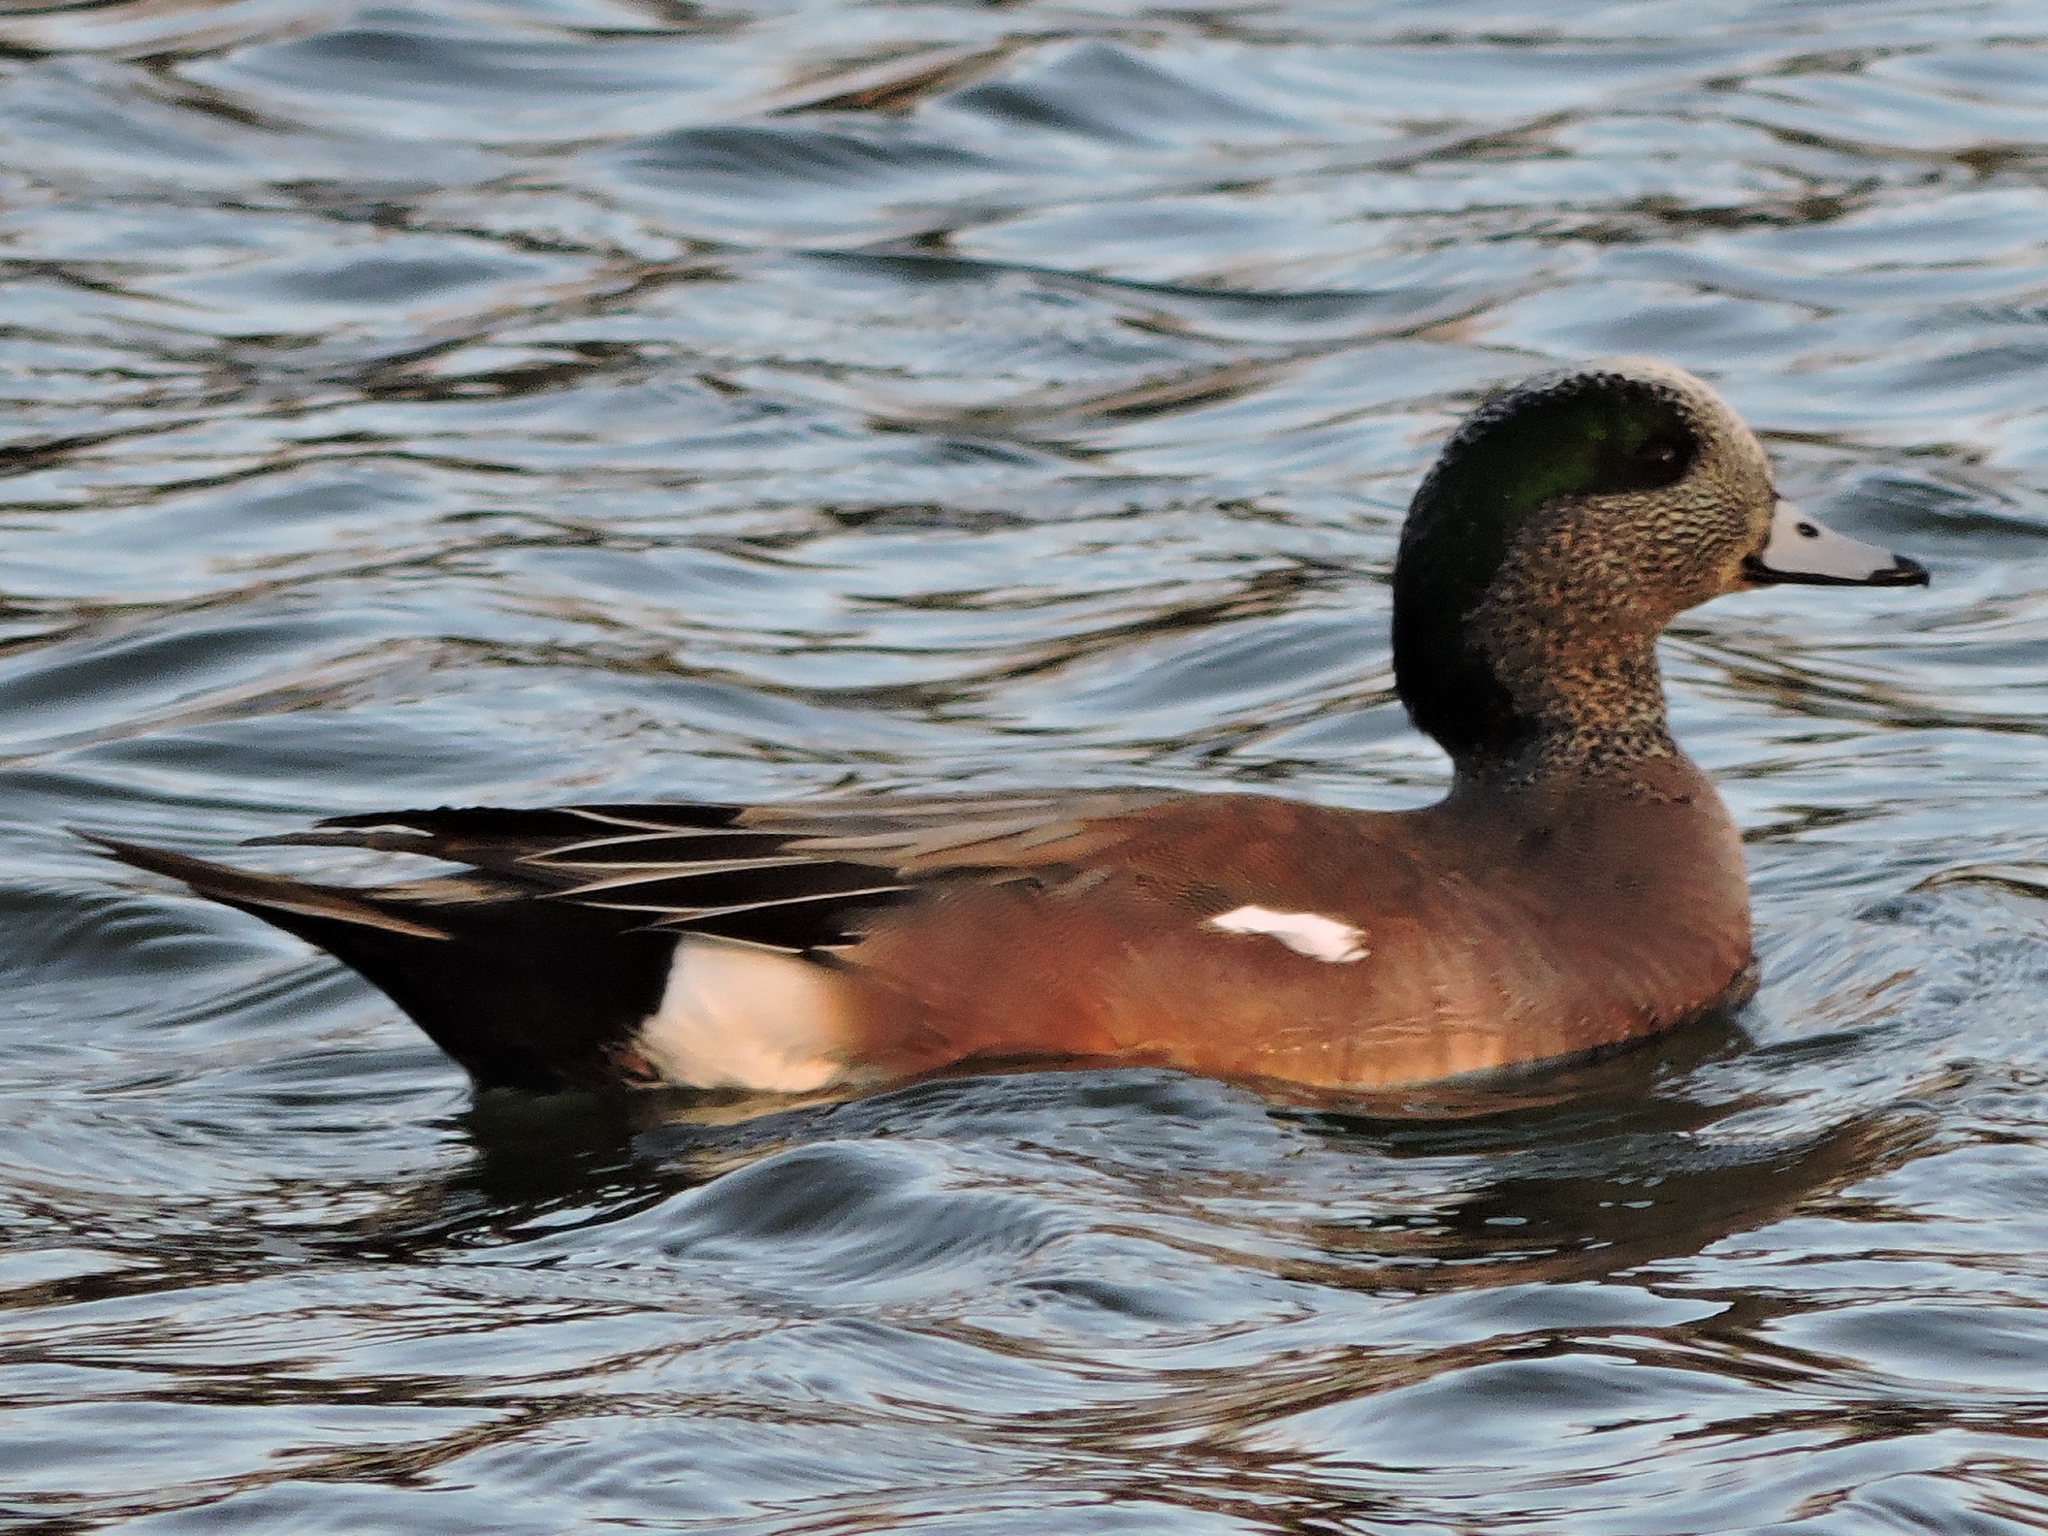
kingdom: Animalia
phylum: Chordata
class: Aves
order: Anseriformes
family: Anatidae
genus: Mareca
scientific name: Mareca americana
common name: American wigeon
